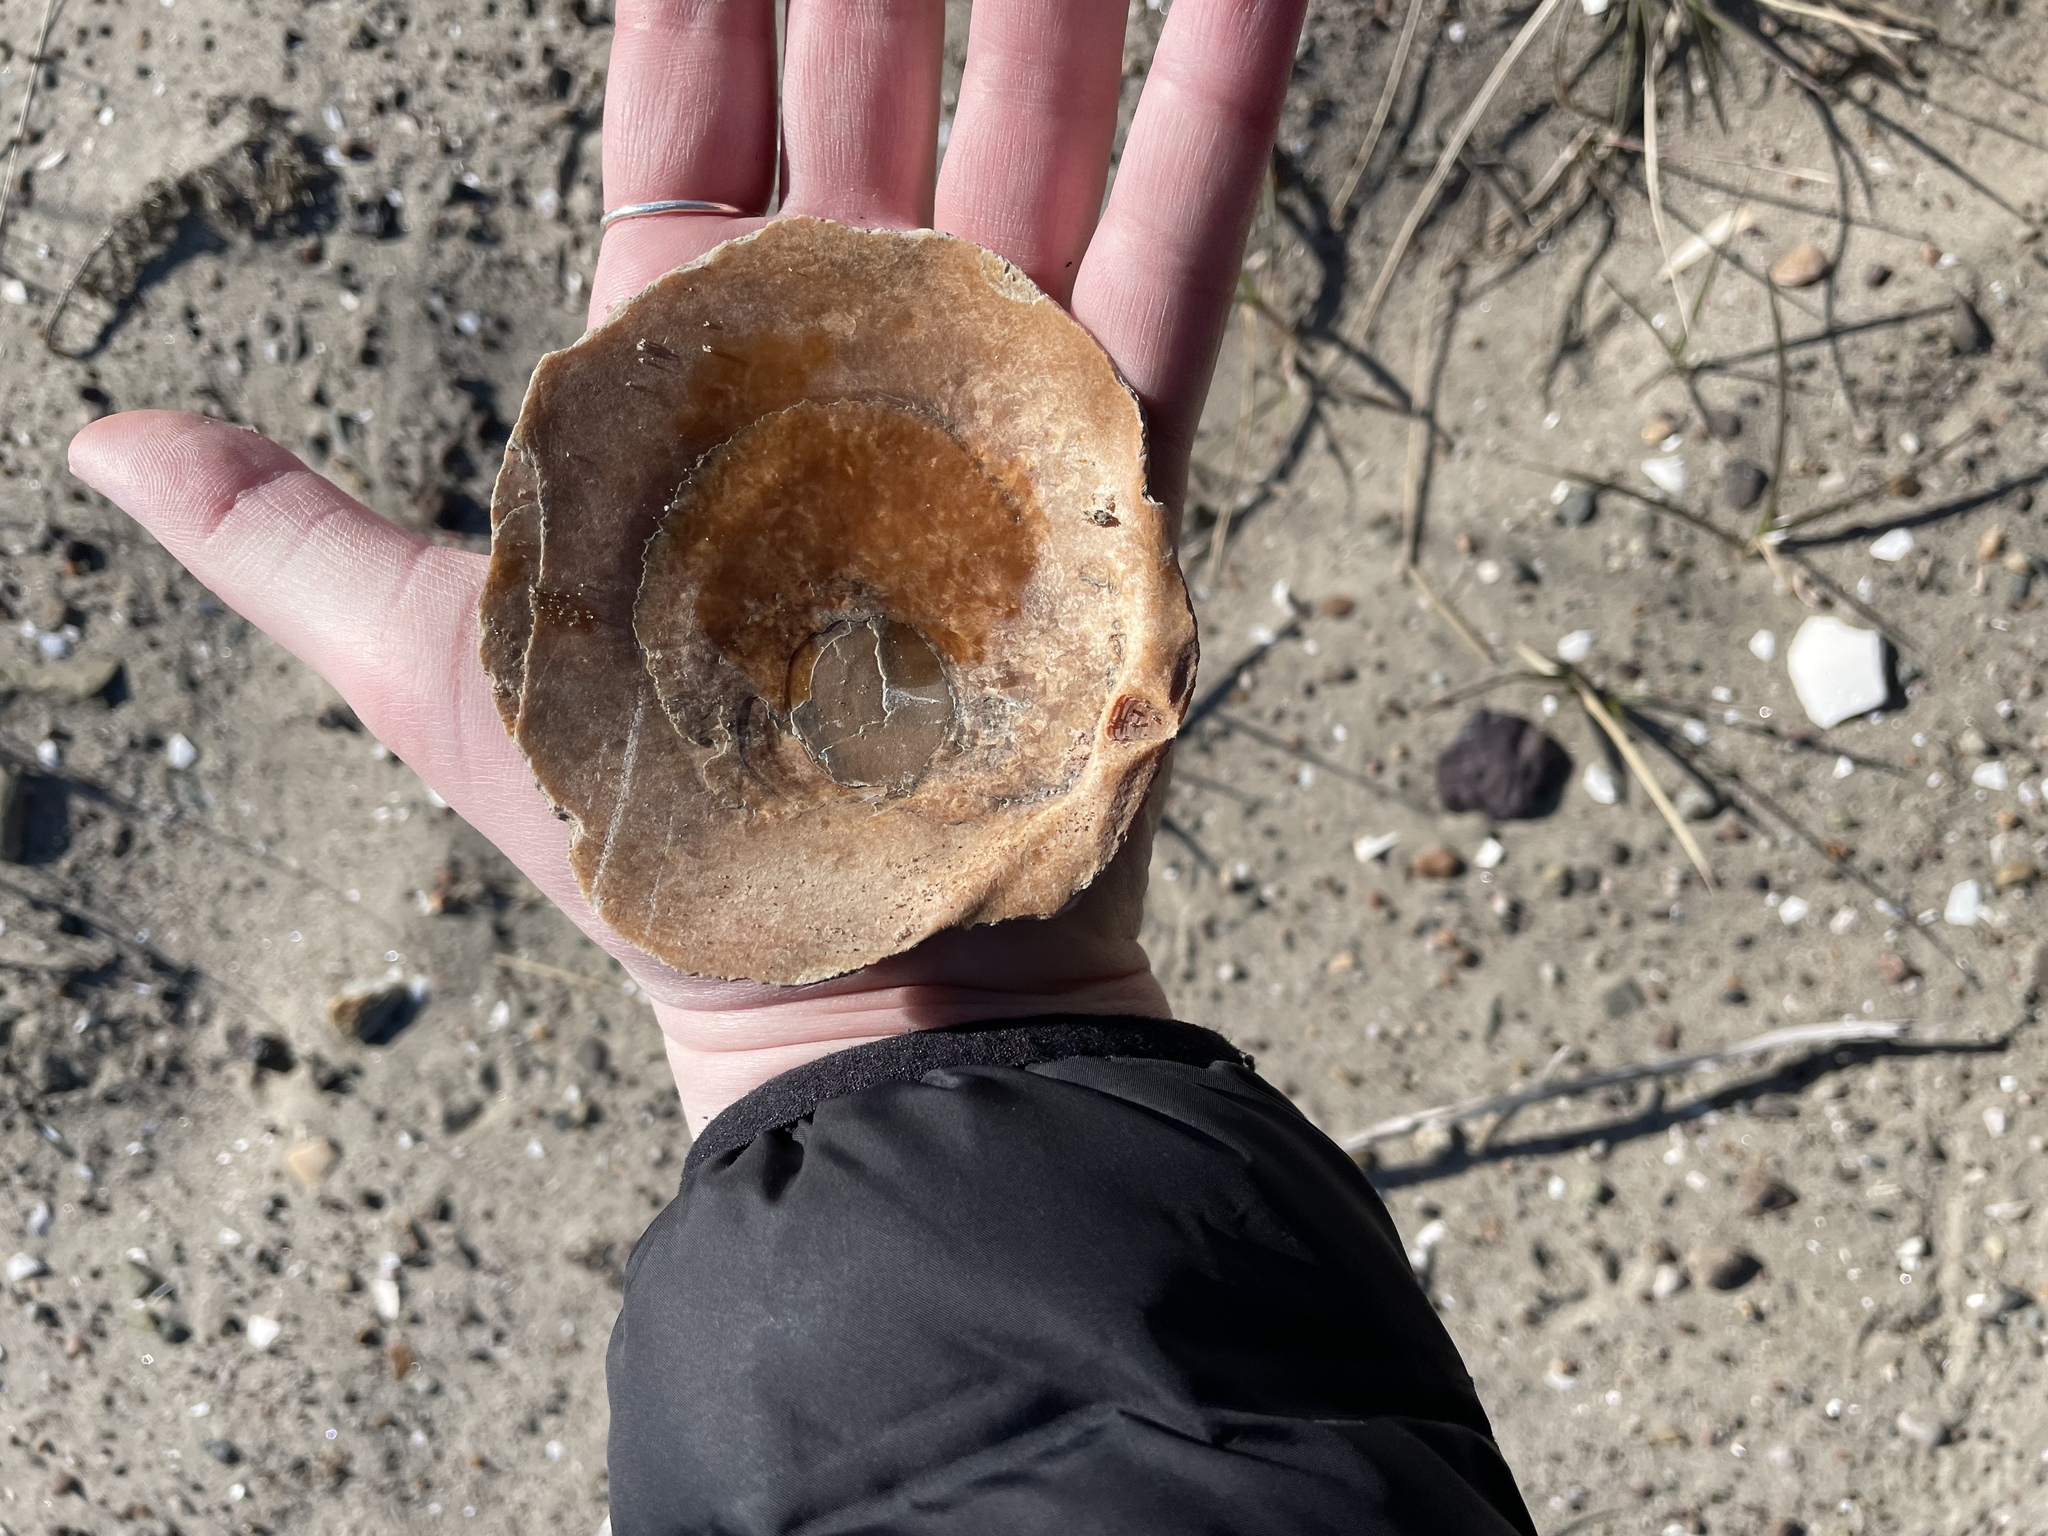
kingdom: Animalia
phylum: Mollusca
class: Bivalvia
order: Pectinida
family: Pectinidae
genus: Placopecten
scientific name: Placopecten magellanicus
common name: American sea scallop
